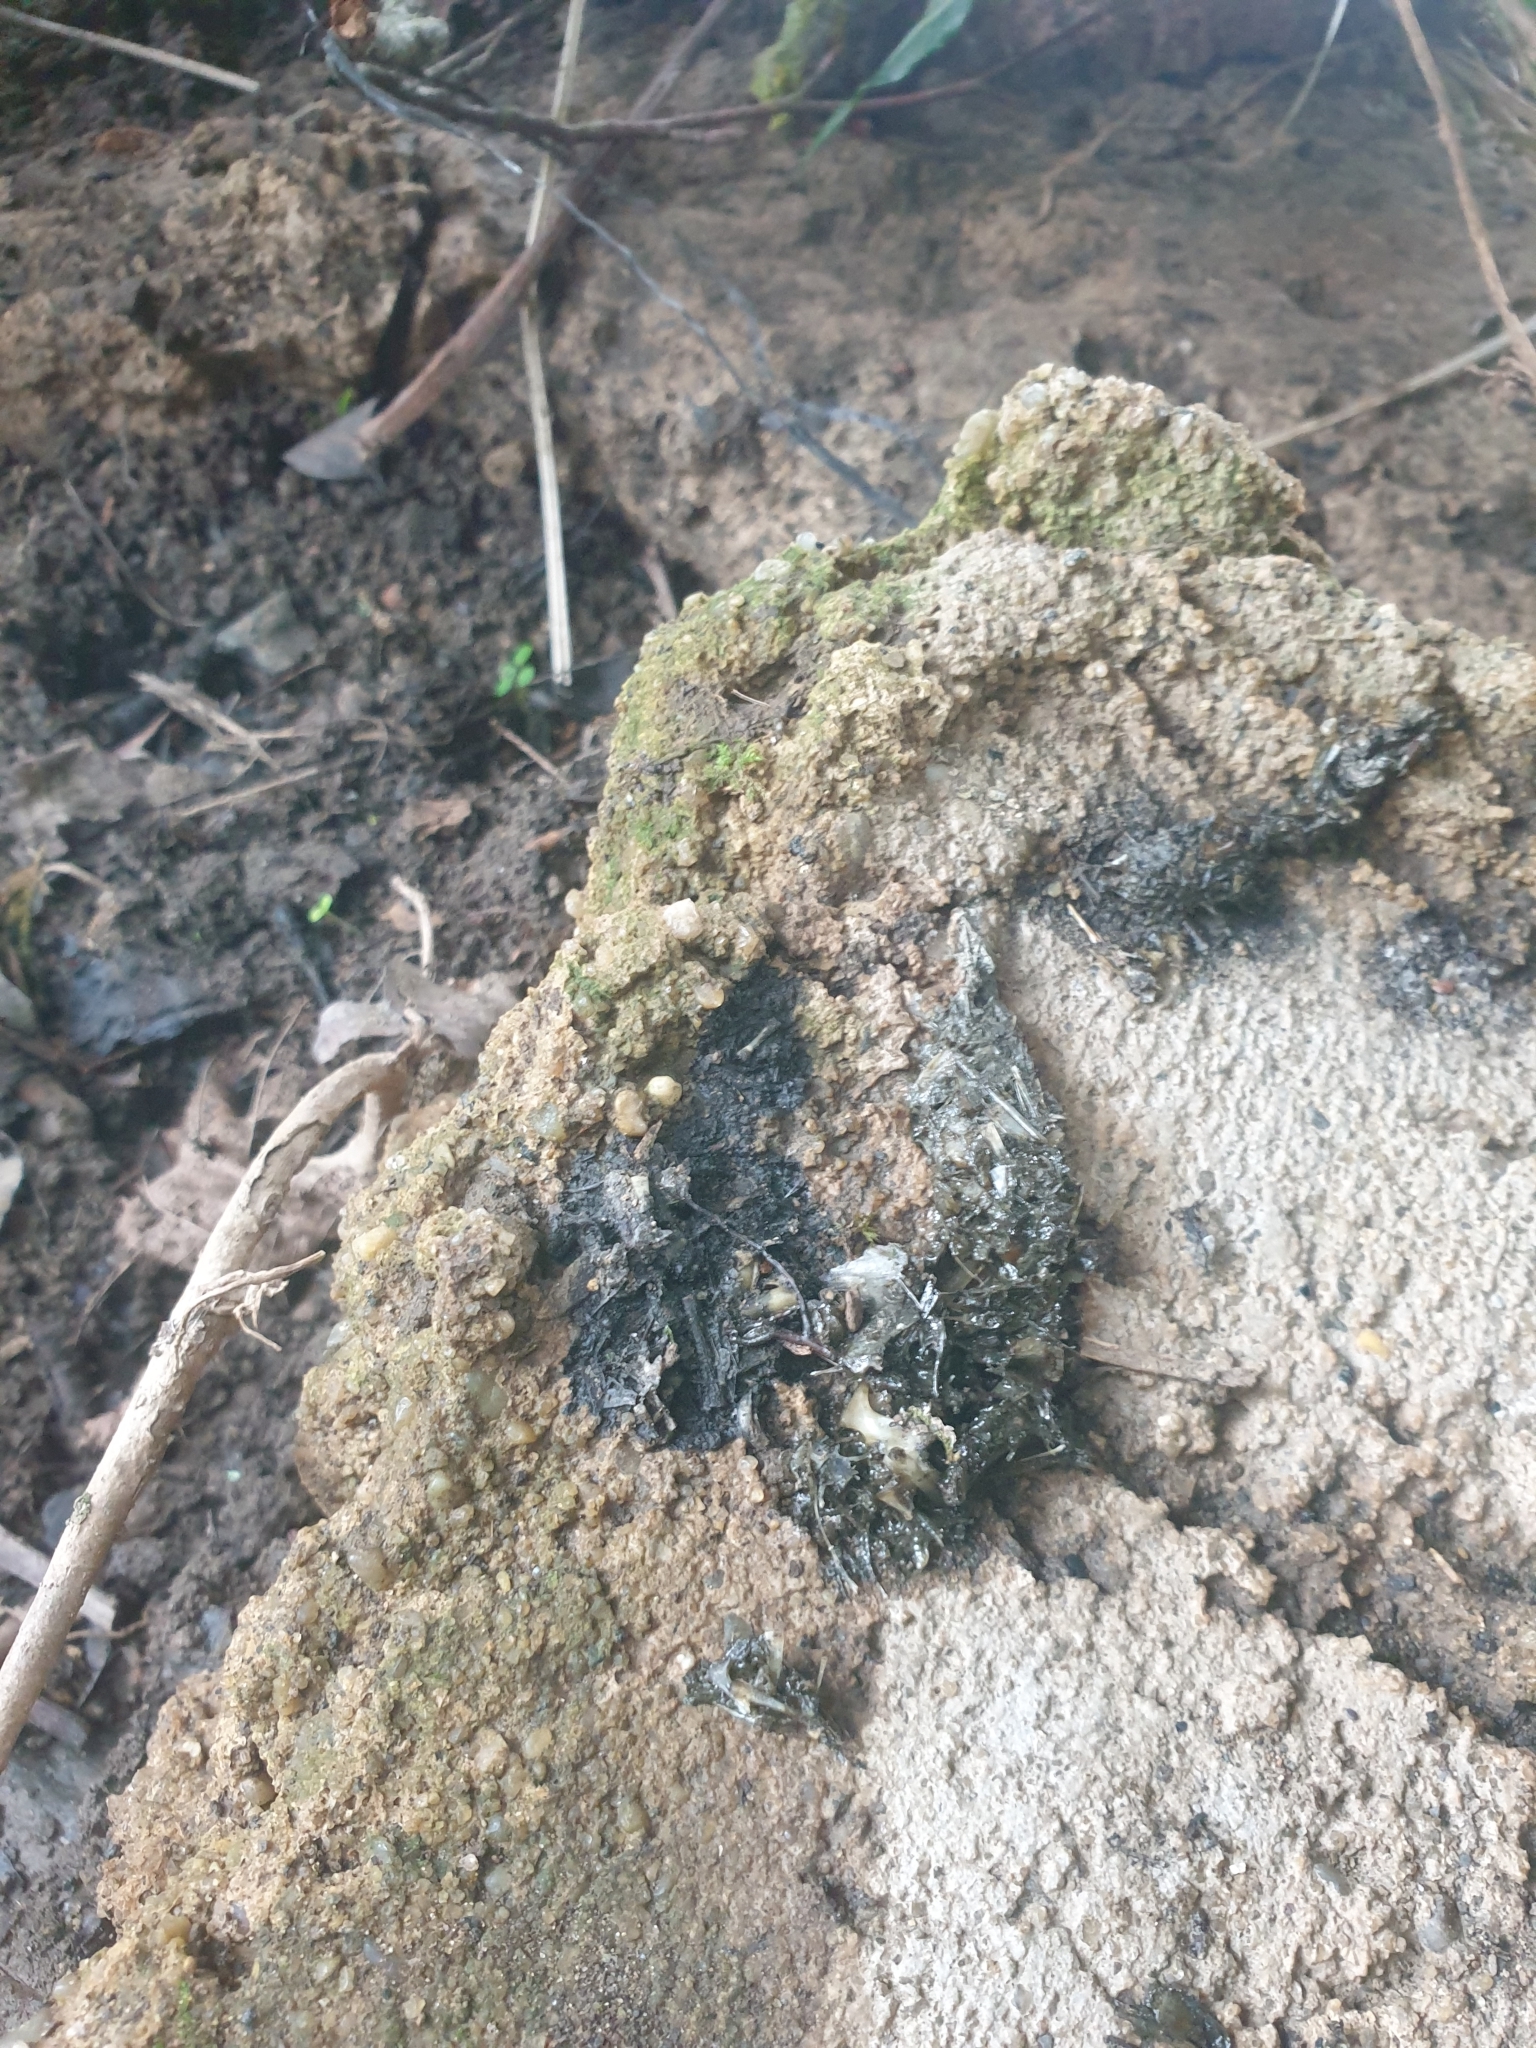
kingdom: Animalia
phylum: Chordata
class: Mammalia
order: Carnivora
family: Mustelidae
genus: Lutra
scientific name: Lutra lutra
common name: European otter
